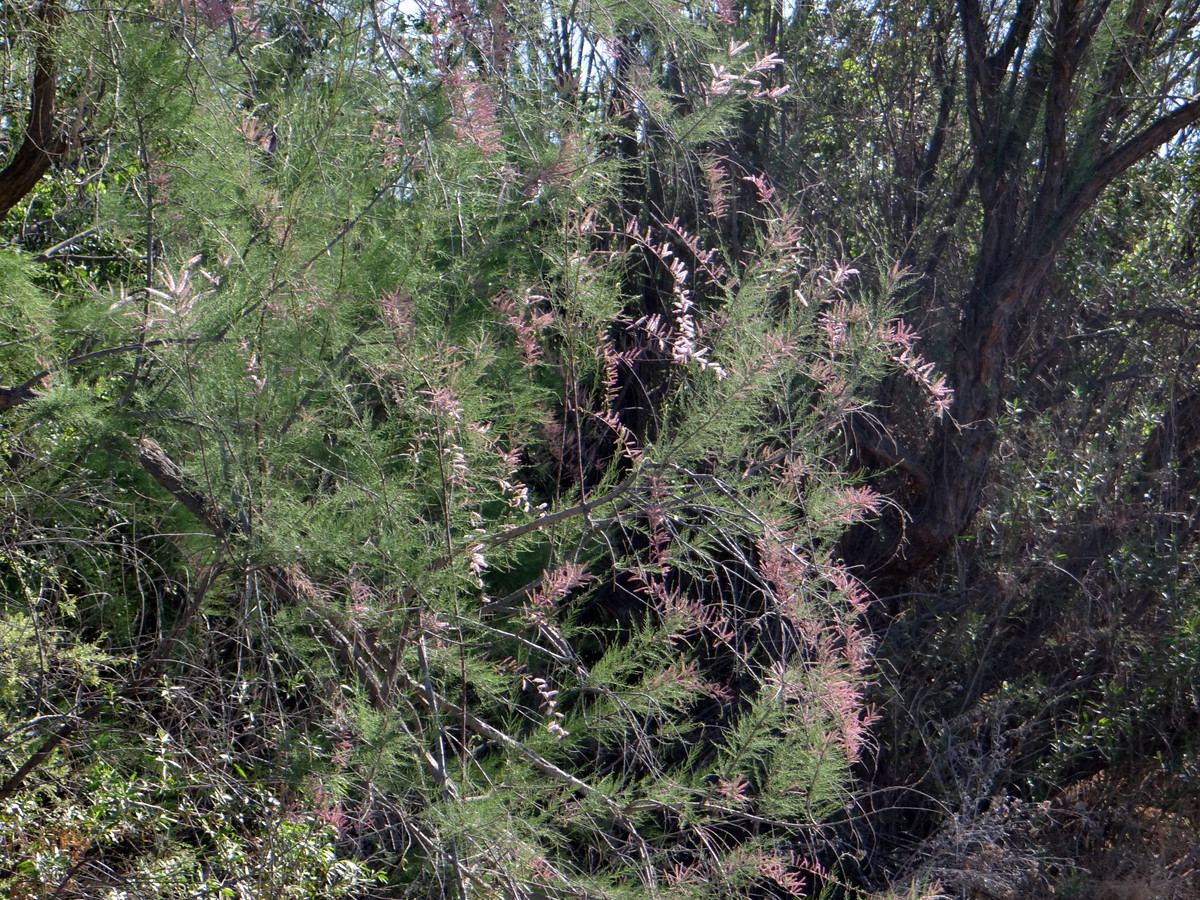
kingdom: Plantae
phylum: Tracheophyta
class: Magnoliopsida
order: Caryophyllales
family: Tamaricaceae
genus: Tamarix
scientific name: Tamarix gallica
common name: Tamarisk
